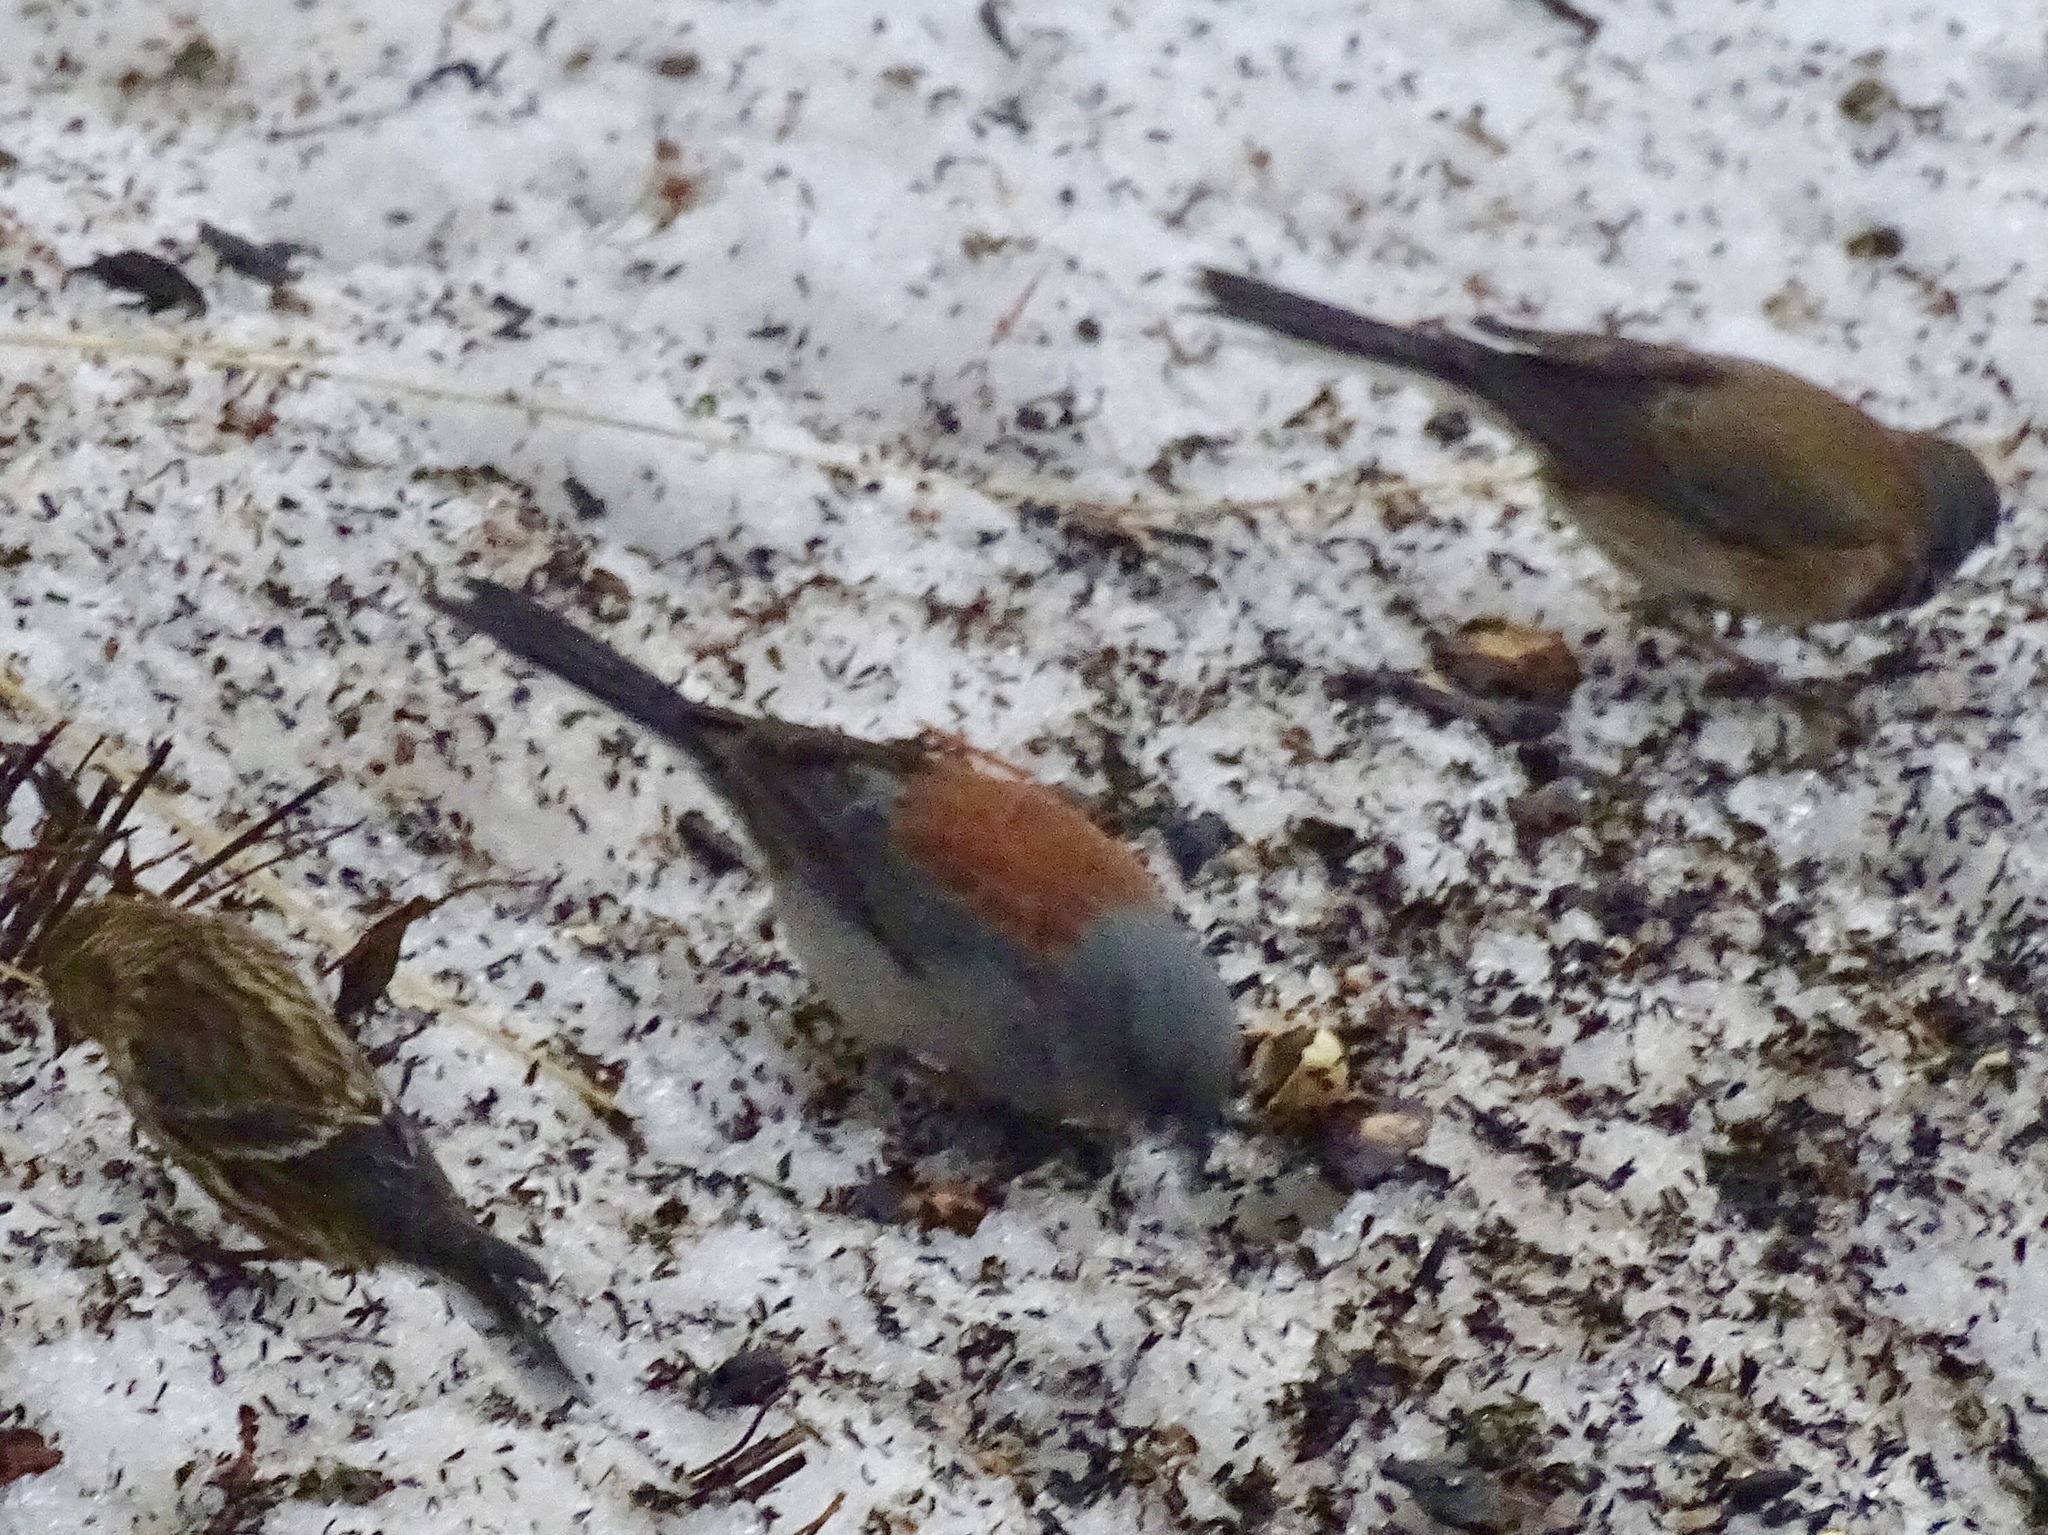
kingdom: Animalia
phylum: Chordata
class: Aves
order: Passeriformes
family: Passerellidae
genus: Junco
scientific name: Junco hyemalis
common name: Dark-eyed junco
